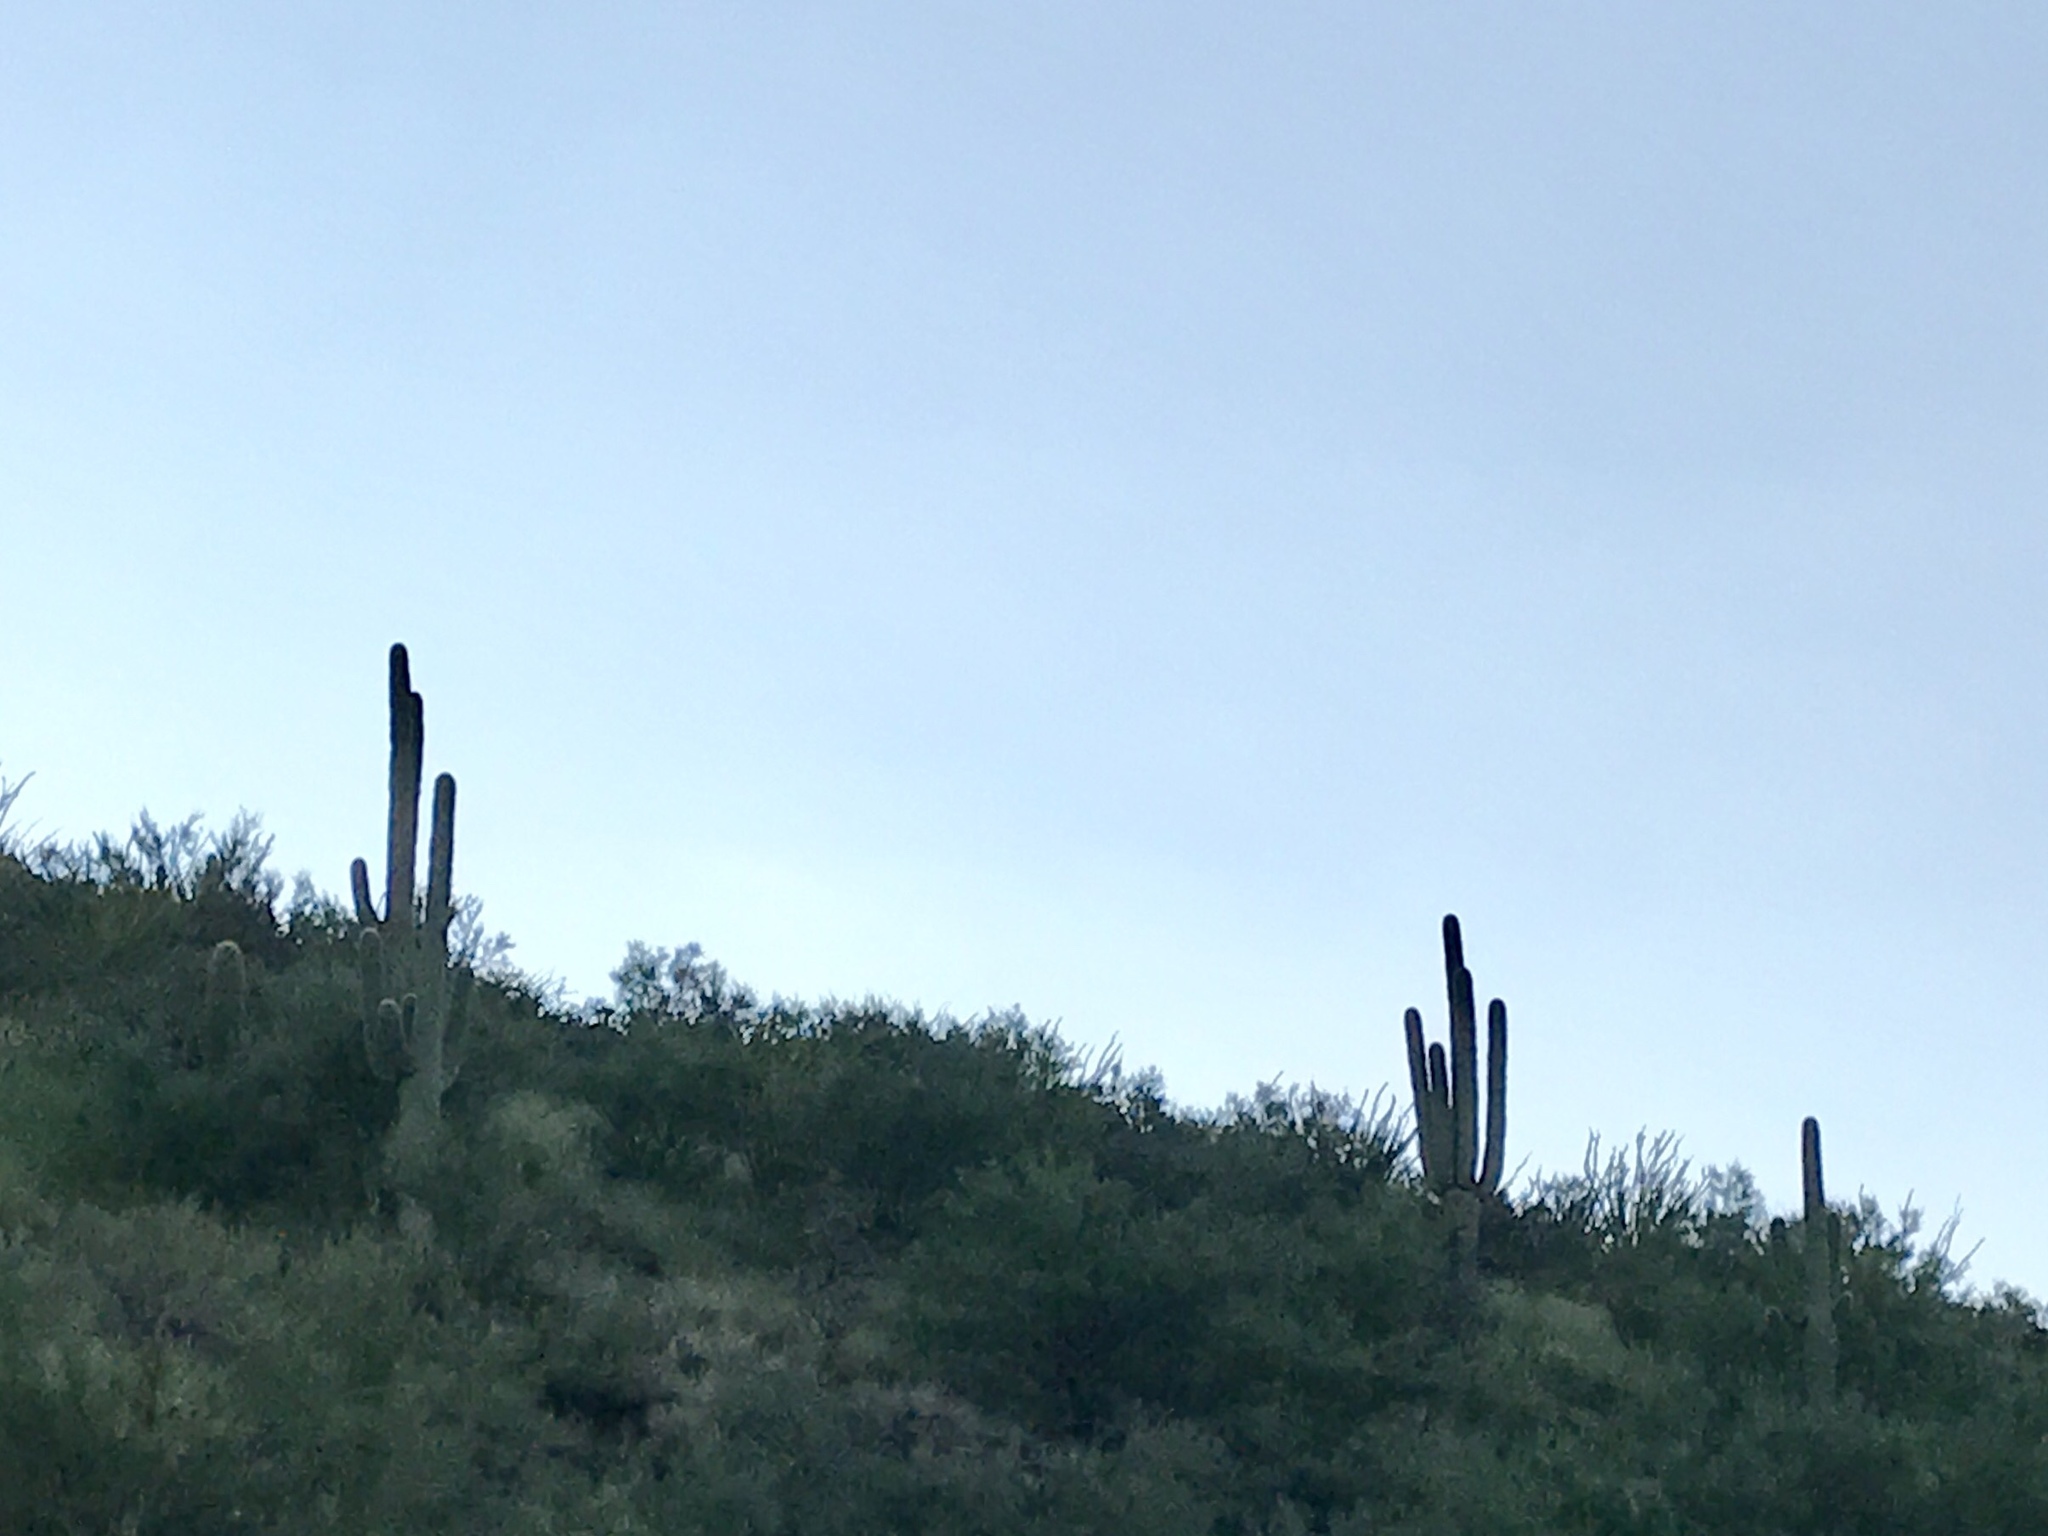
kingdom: Plantae
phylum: Tracheophyta
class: Magnoliopsida
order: Caryophyllales
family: Cactaceae
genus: Carnegiea
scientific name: Carnegiea gigantea
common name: Saguaro
